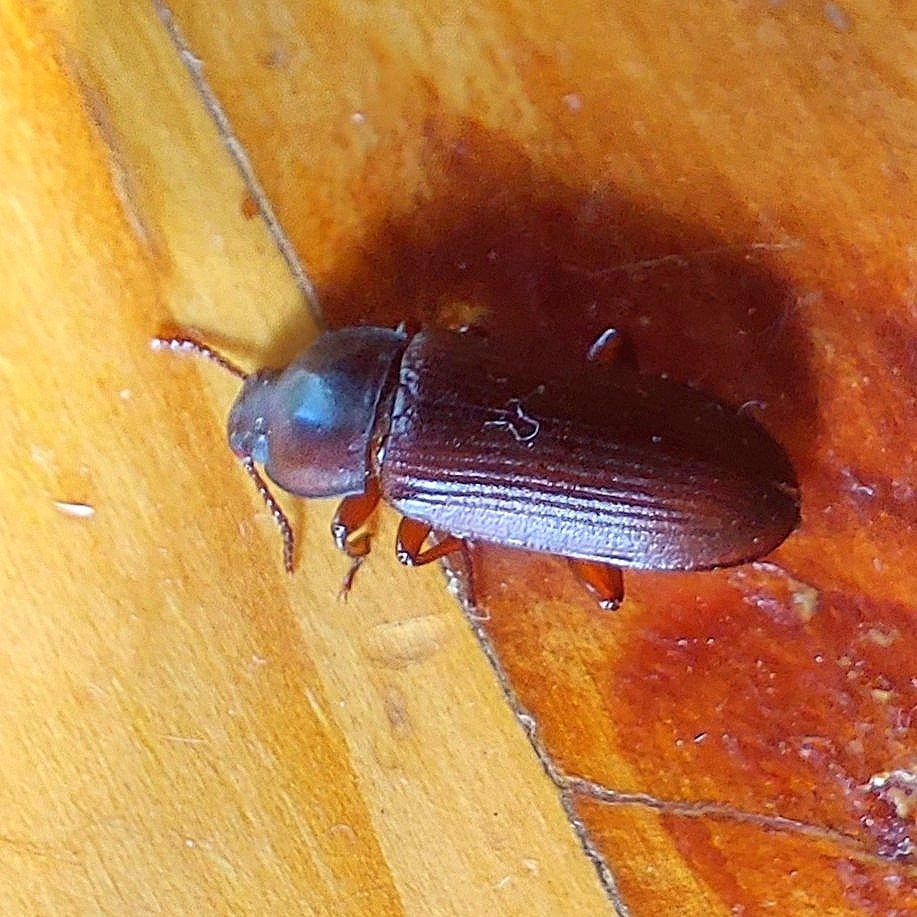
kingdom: Animalia
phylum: Arthropoda
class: Insecta
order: Coleoptera
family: Tenebrionidae
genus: Tenebrio
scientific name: Tenebrio molitor
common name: Hardback beetle
